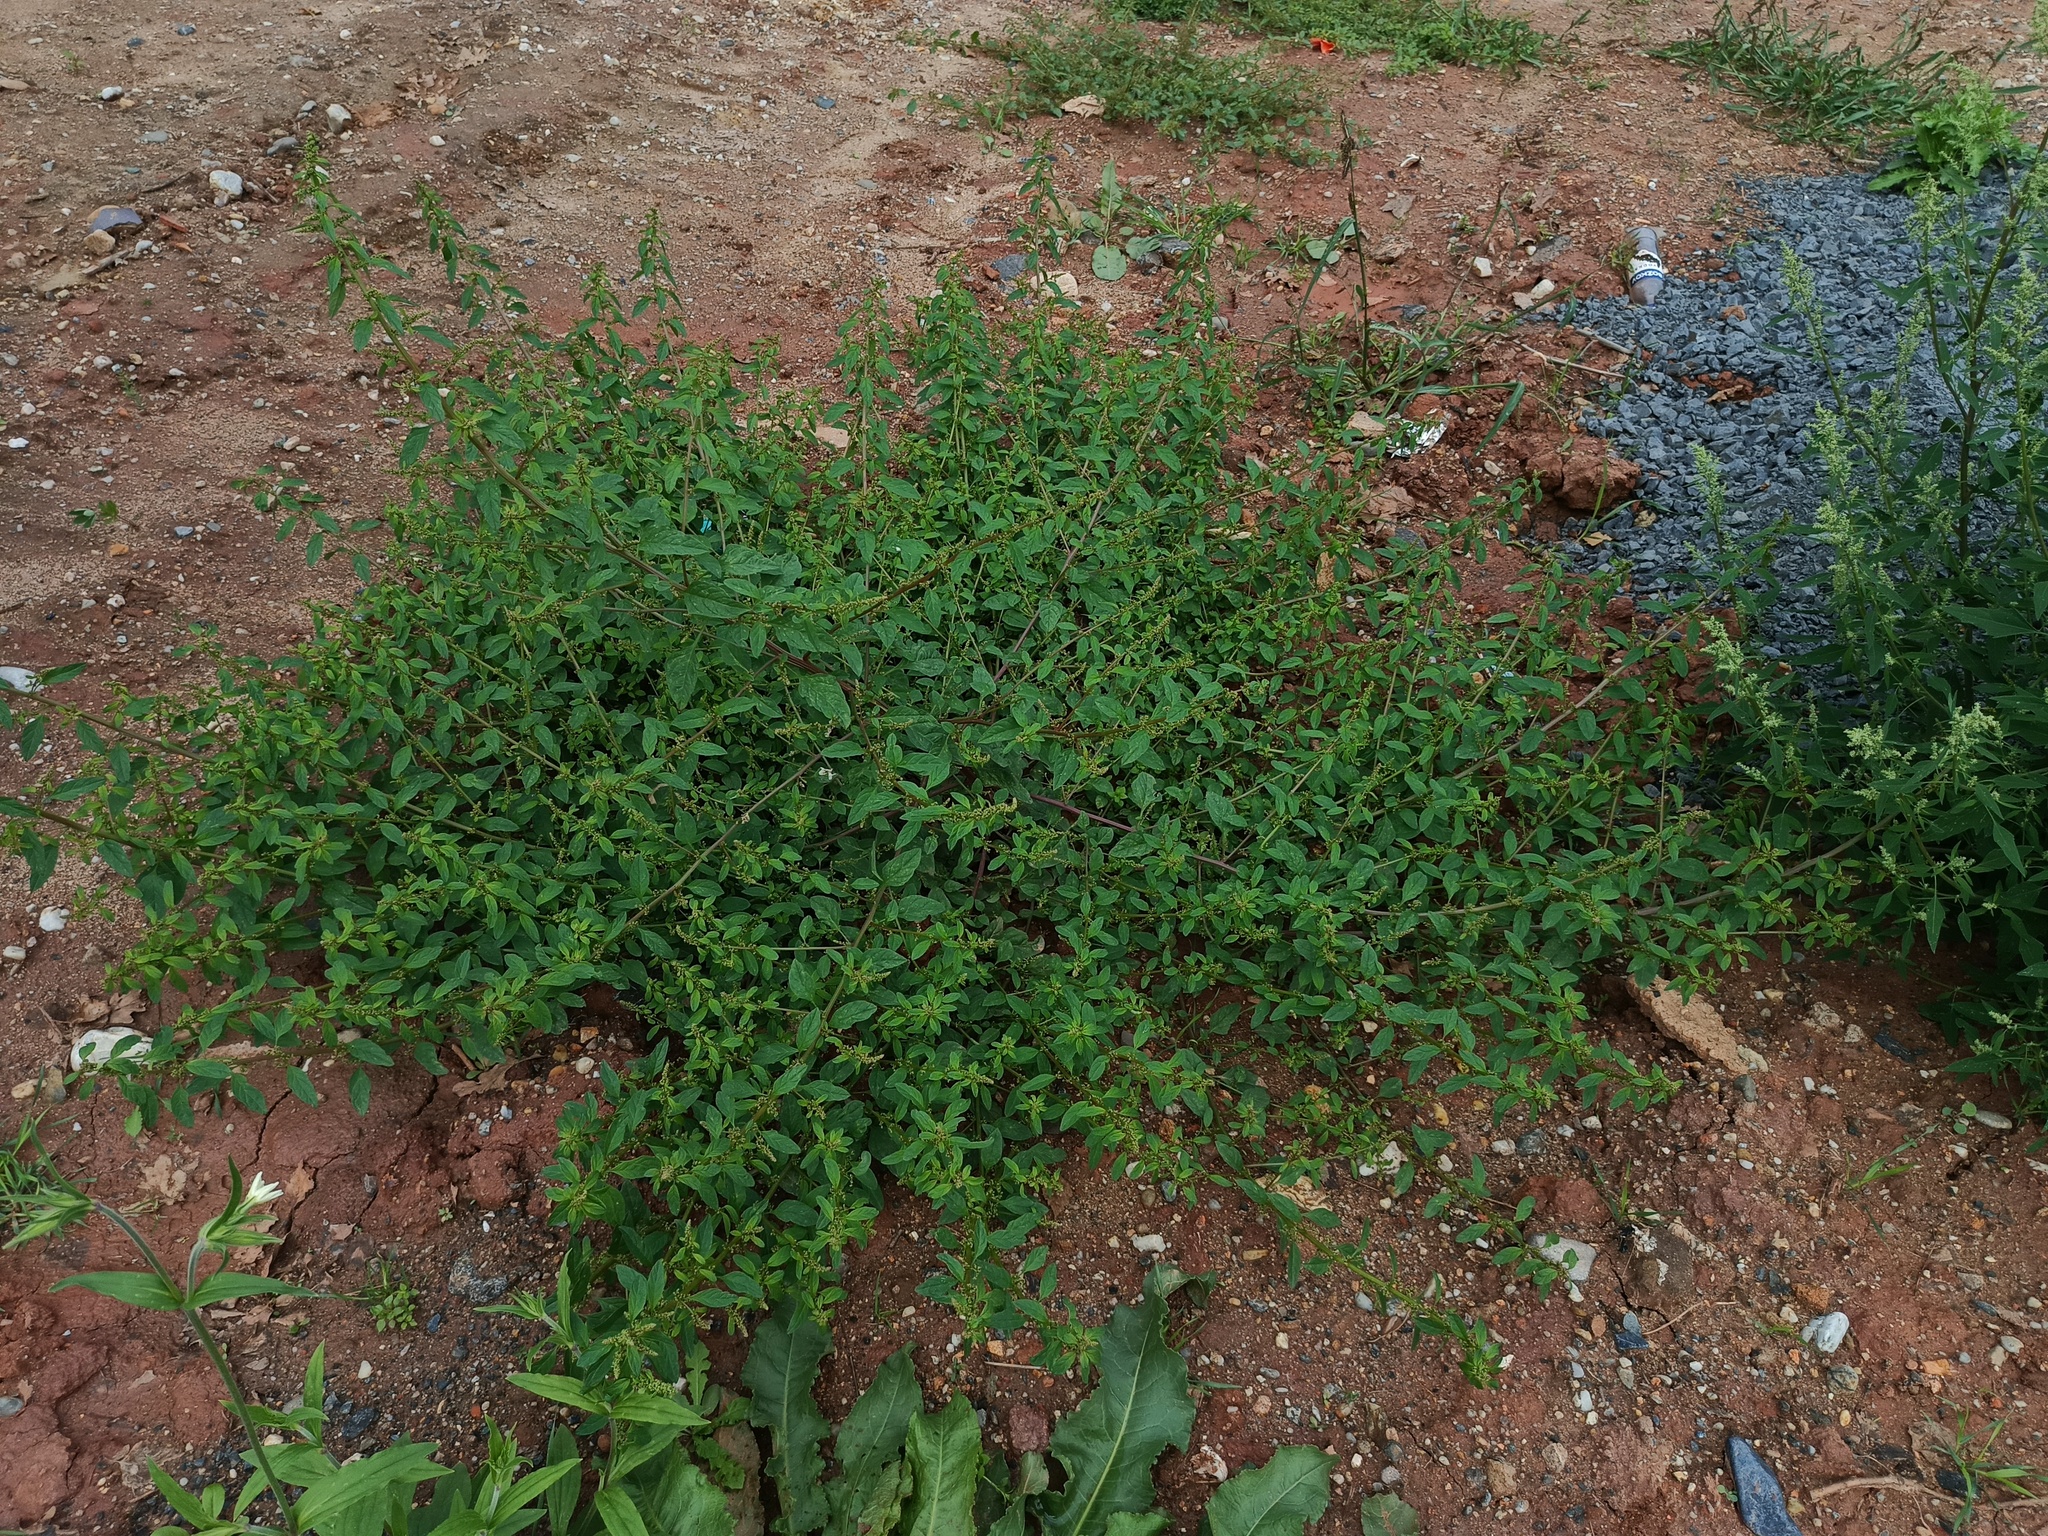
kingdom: Plantae
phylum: Tracheophyta
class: Magnoliopsida
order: Caryophyllales
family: Amaranthaceae
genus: Lipandra
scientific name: Lipandra polysperma
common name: Many-seed goosefoot
